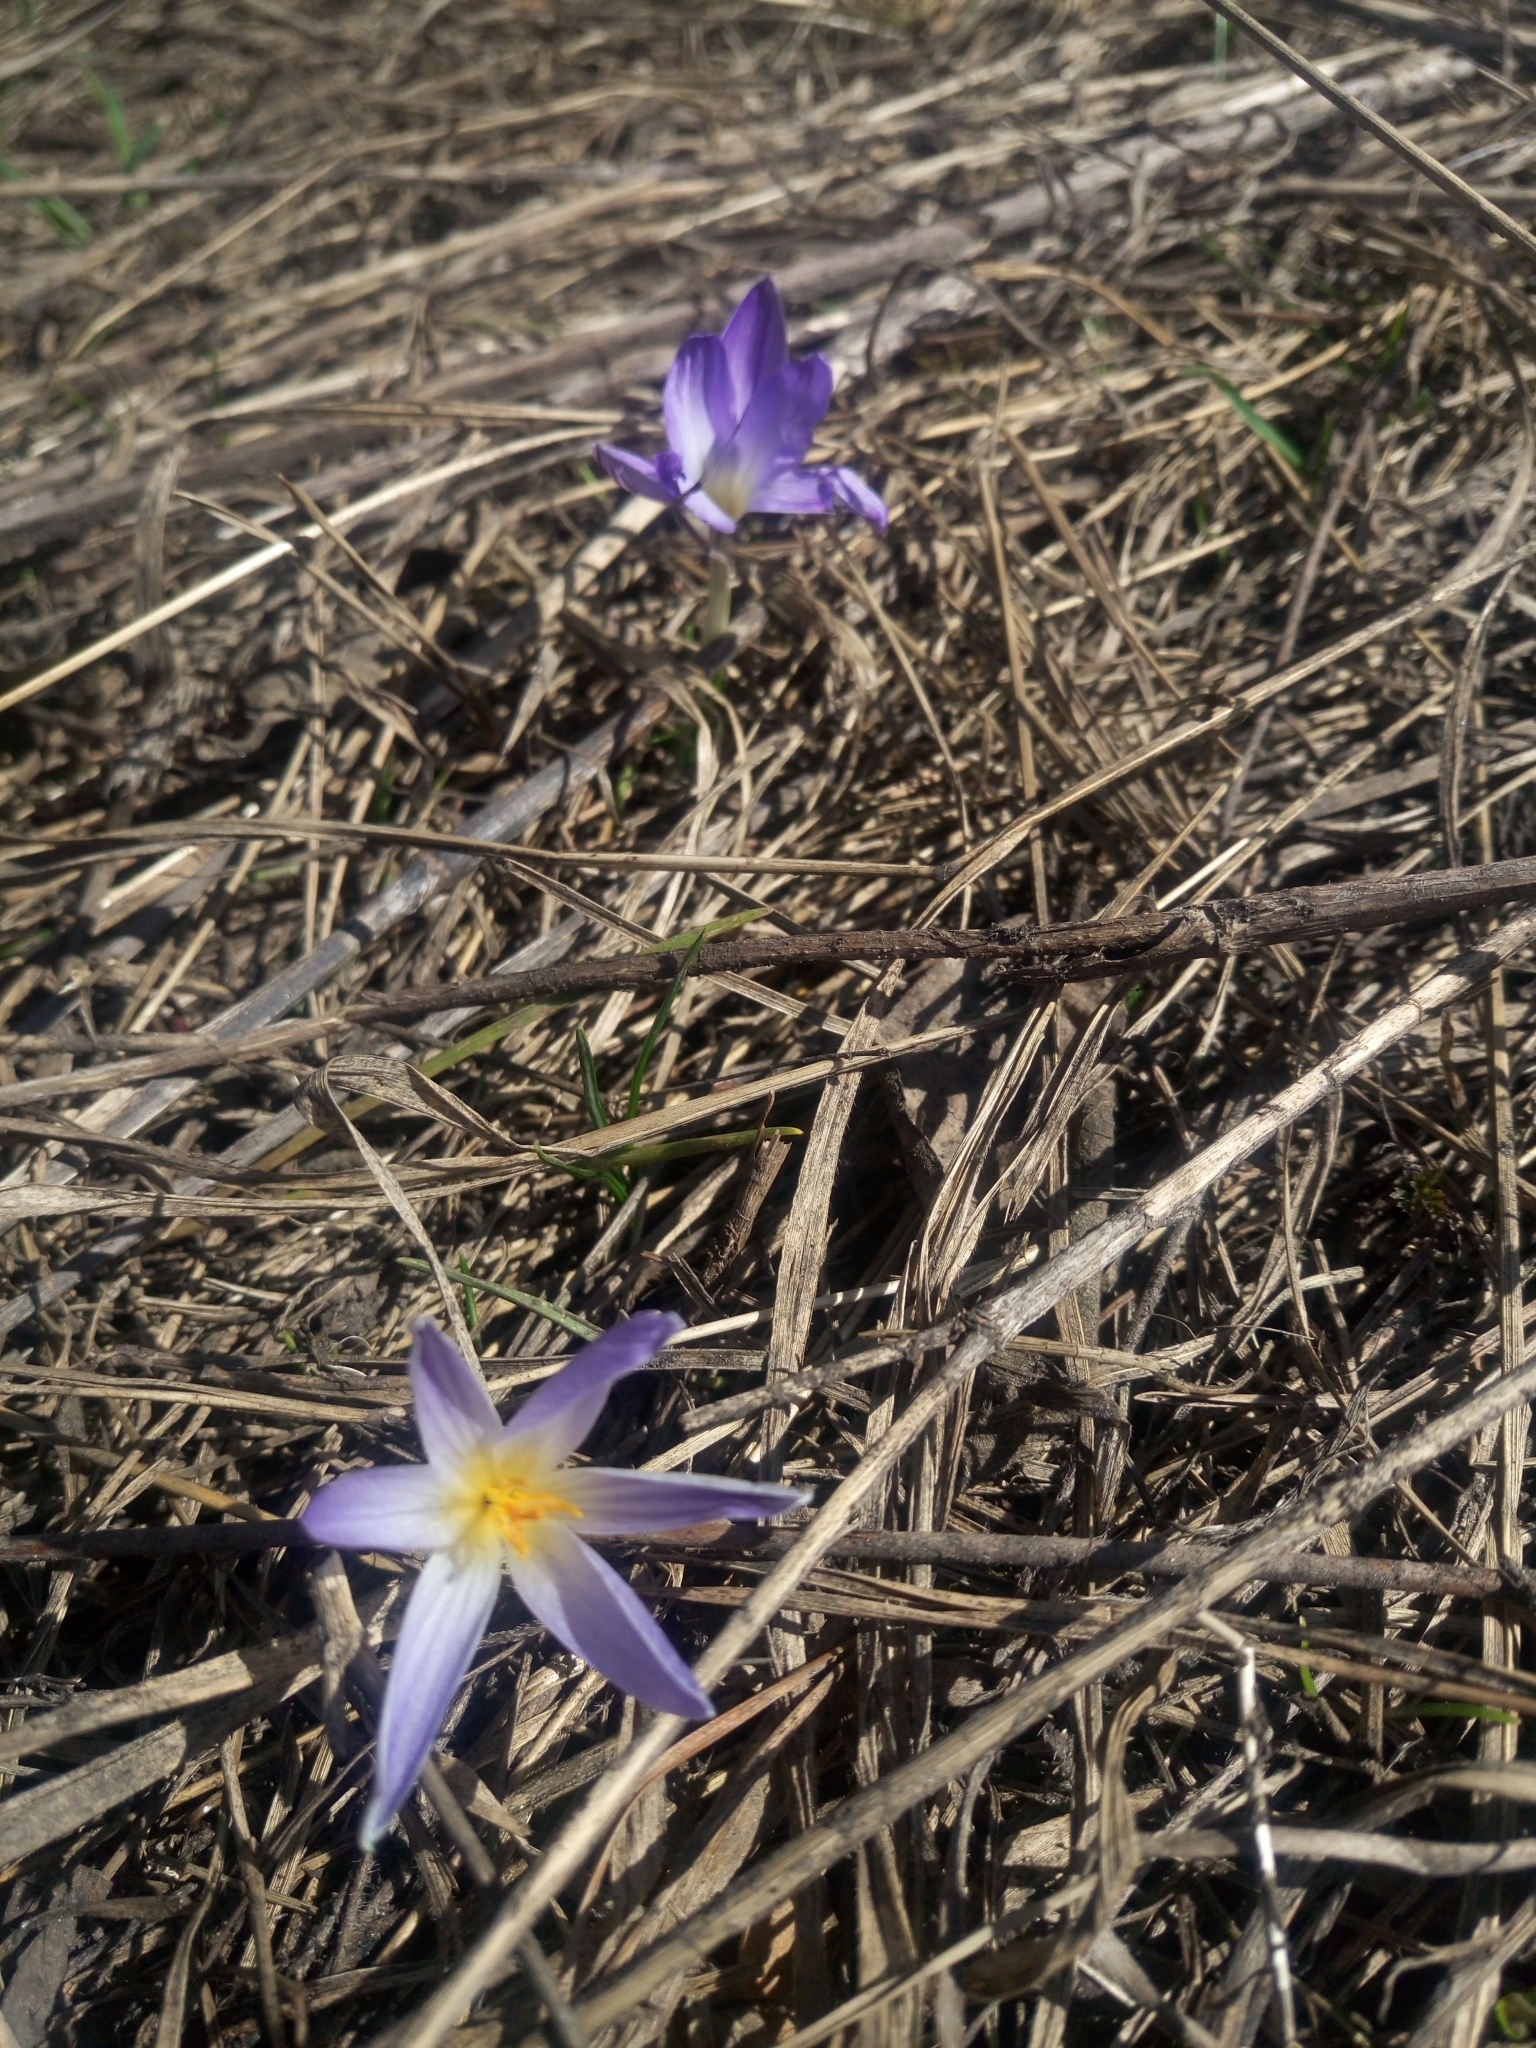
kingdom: Plantae
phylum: Tracheophyta
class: Liliopsida
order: Asparagales
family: Iridaceae
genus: Crocus
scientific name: Crocus reticulatus
